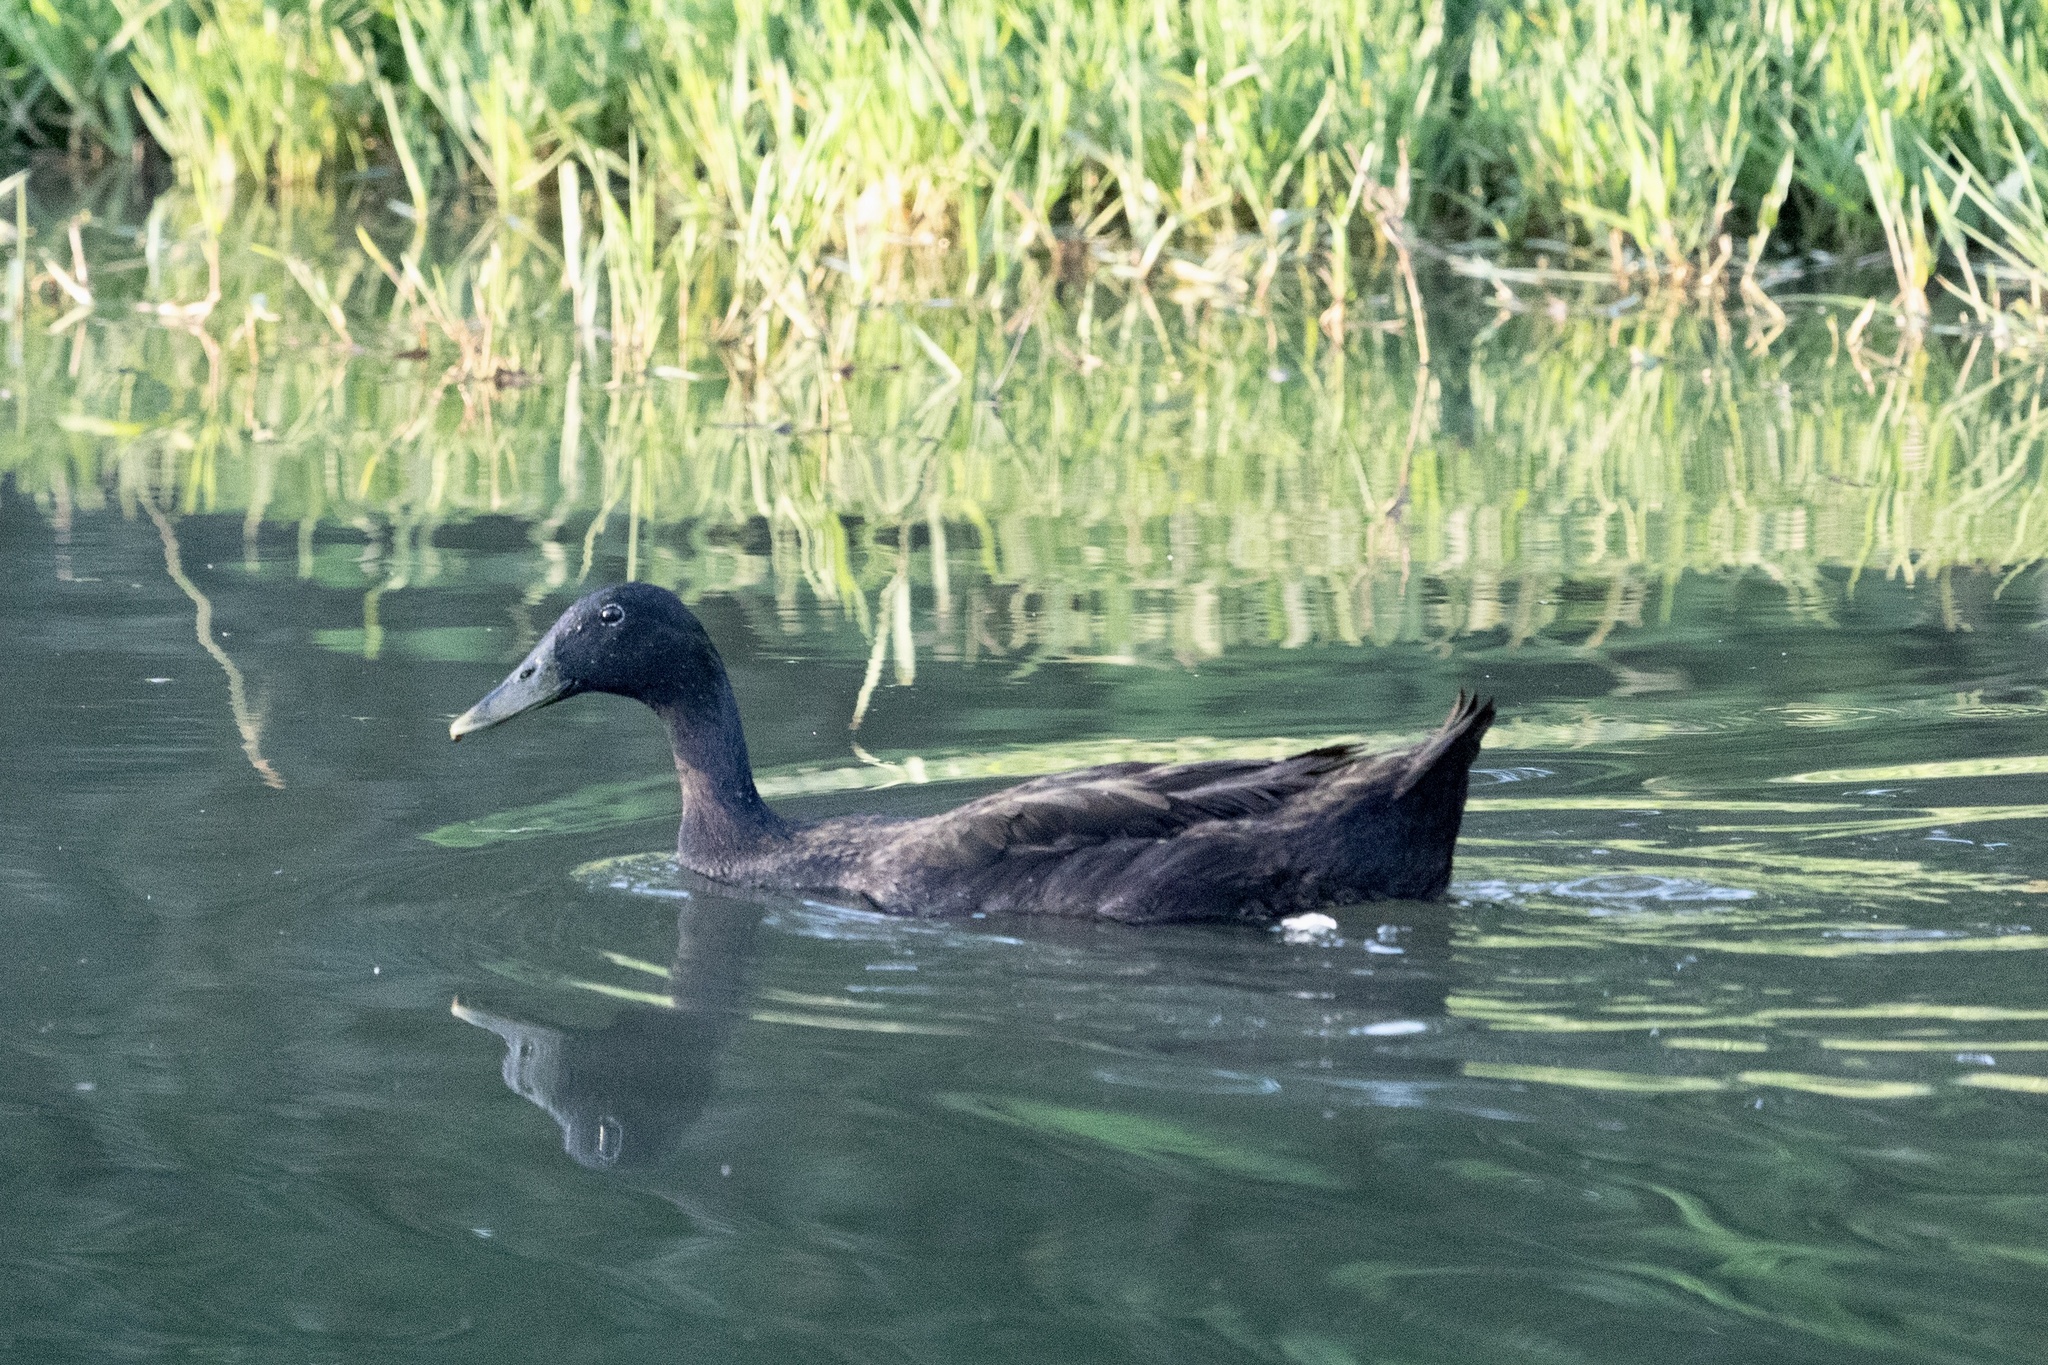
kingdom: Animalia
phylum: Chordata
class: Aves
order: Anseriformes
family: Anatidae
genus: Anas
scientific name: Anas platyrhynchos
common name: Mallard
